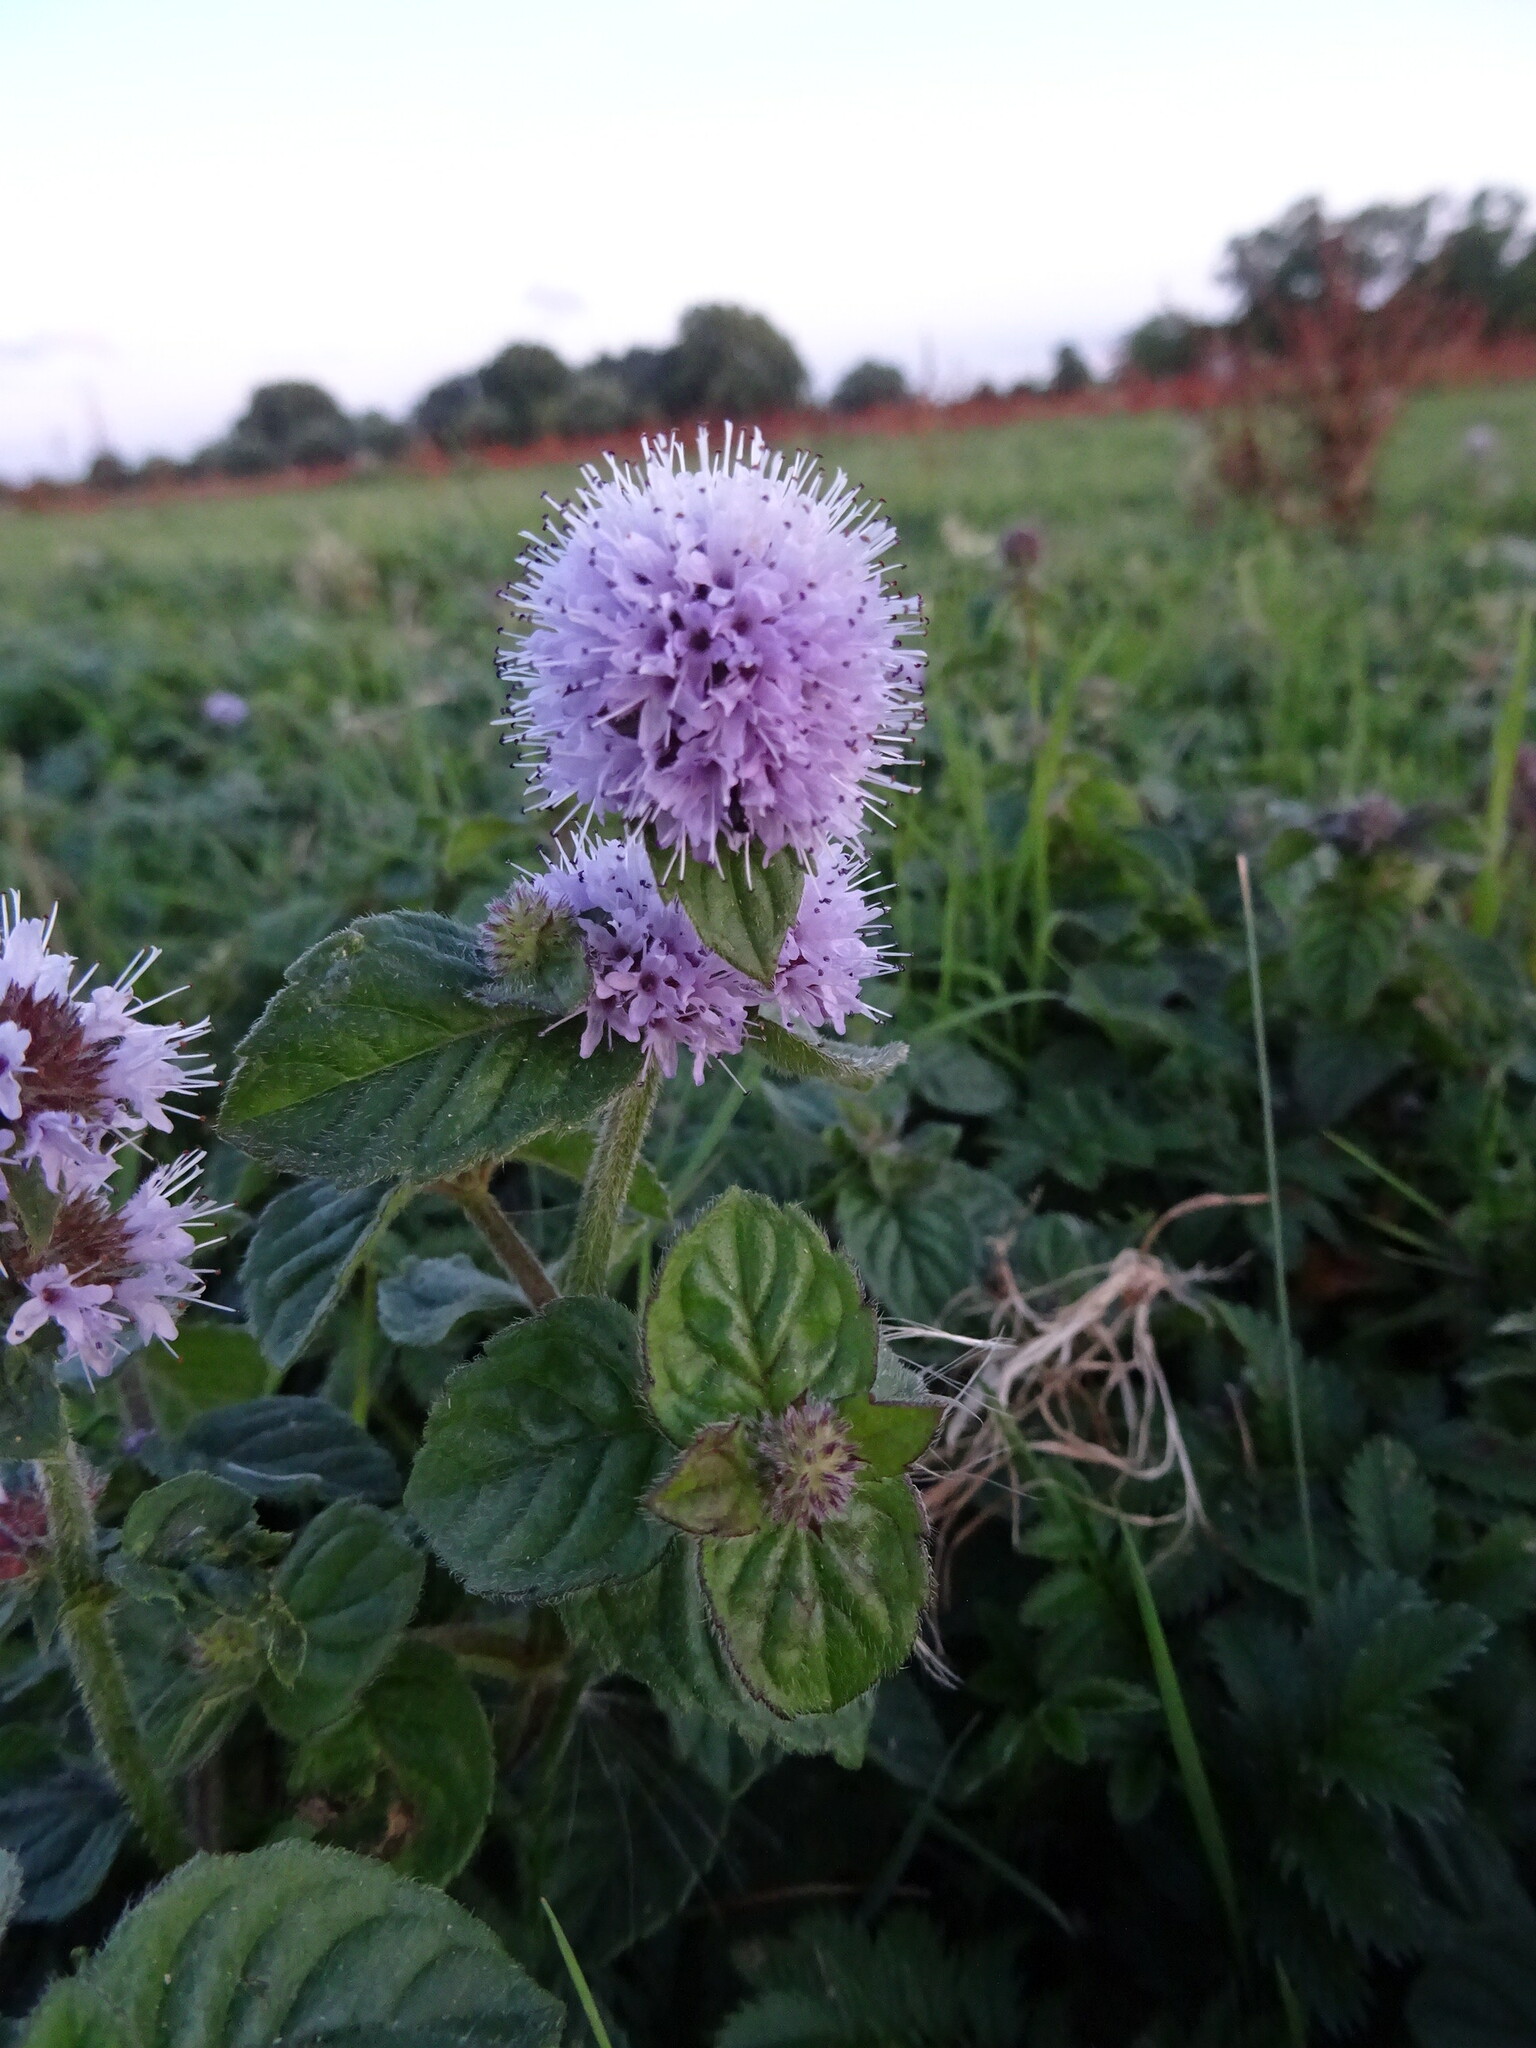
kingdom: Plantae
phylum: Tracheophyta
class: Magnoliopsida
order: Lamiales
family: Lamiaceae
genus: Mentha
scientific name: Mentha aquatica
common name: Water mint
